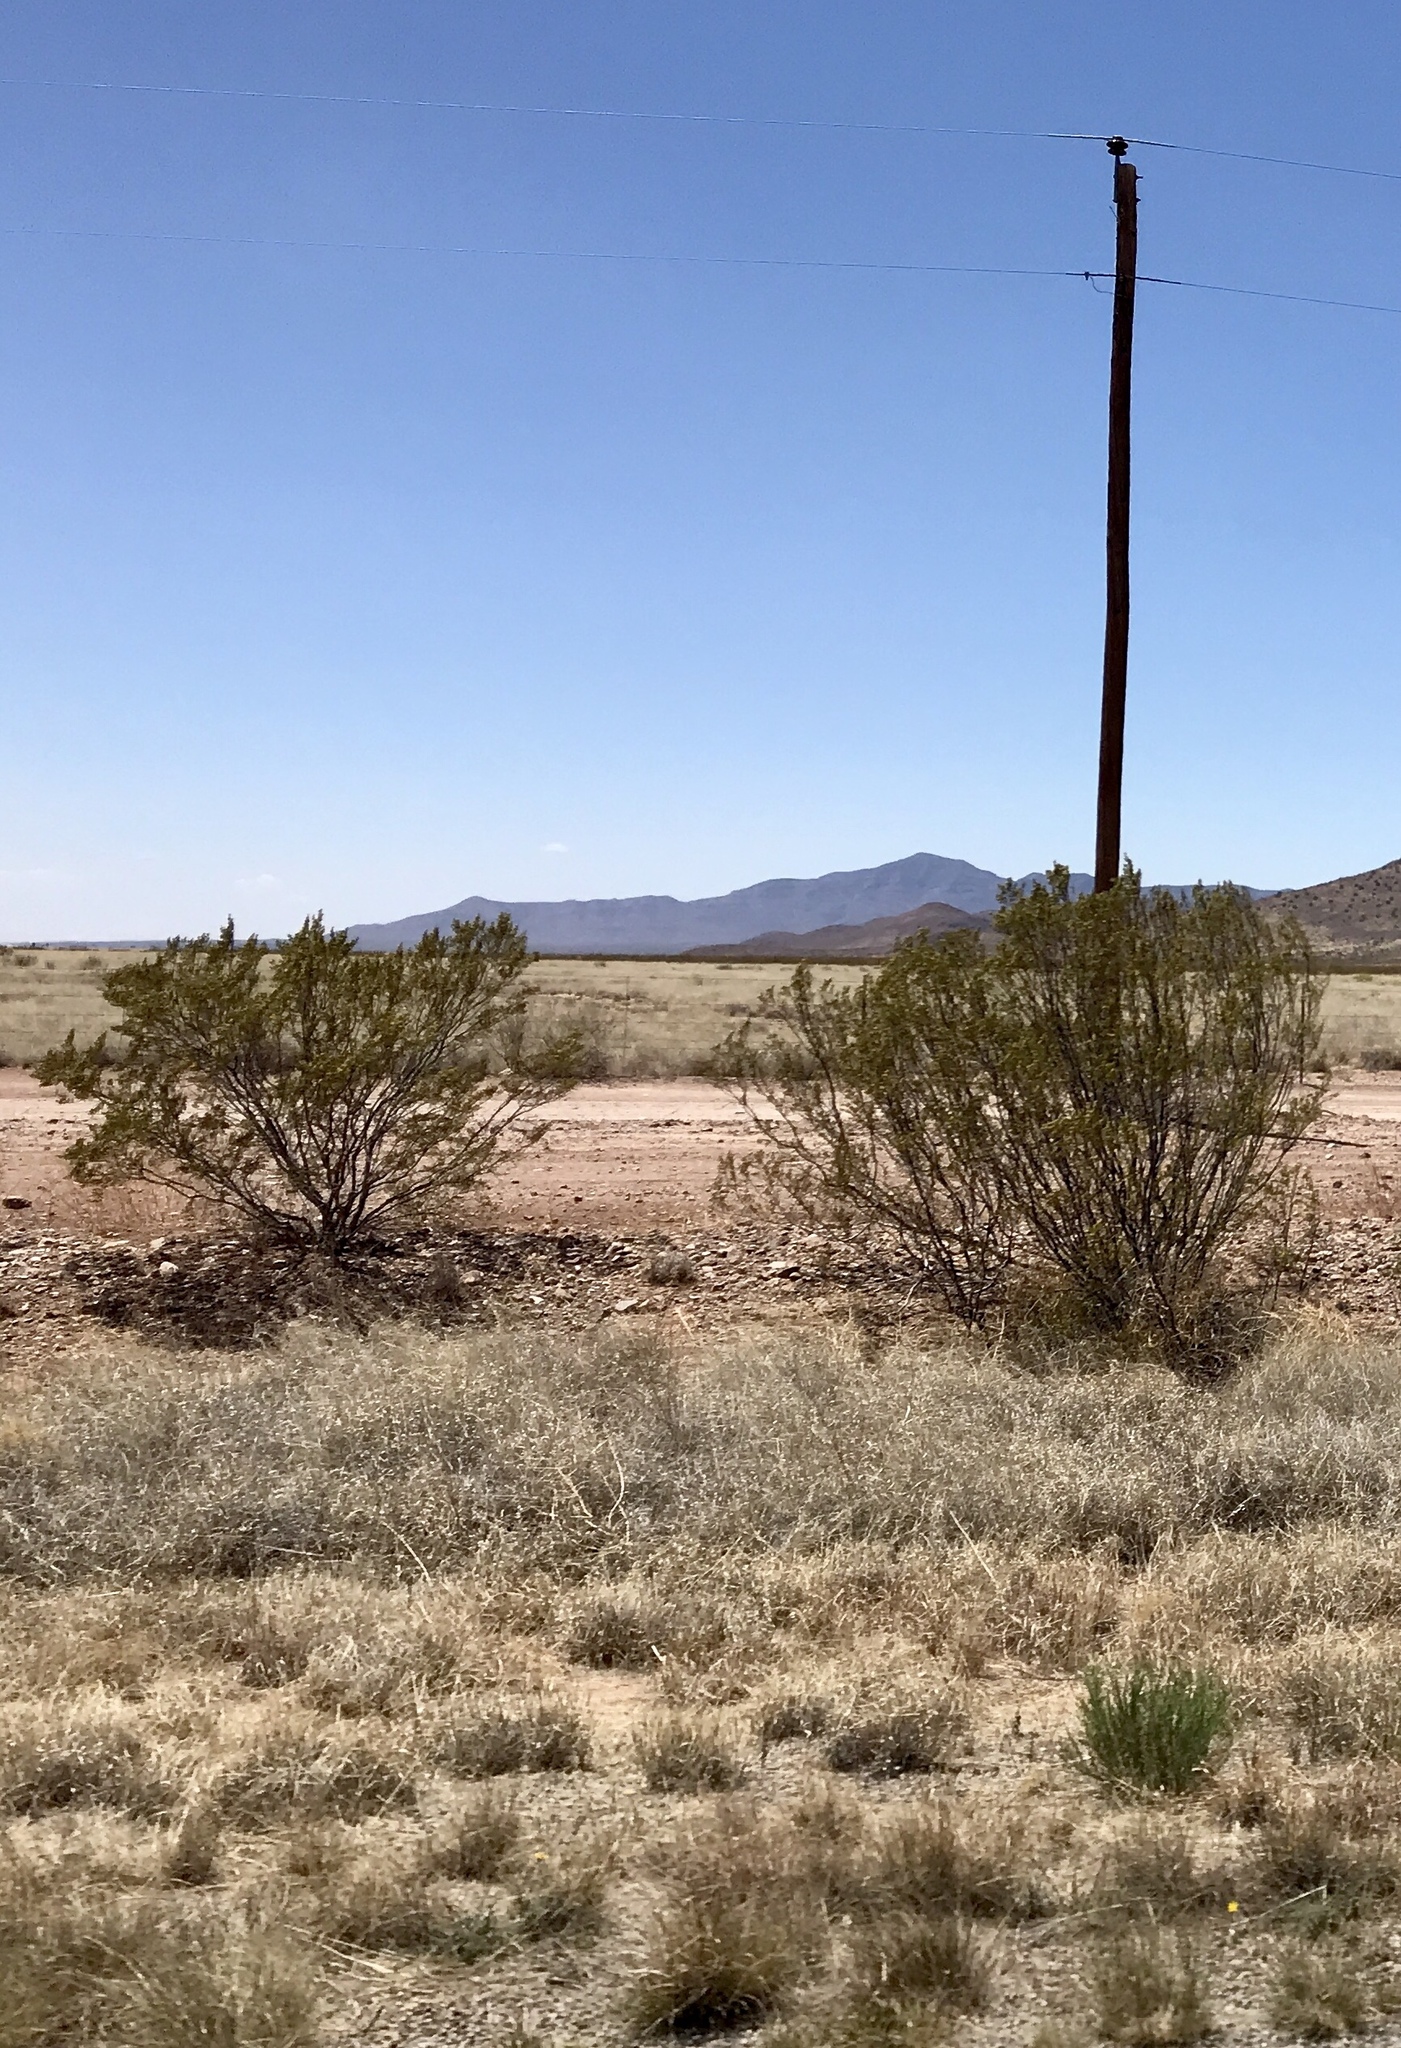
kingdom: Plantae
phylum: Tracheophyta
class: Magnoliopsida
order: Zygophyllales
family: Zygophyllaceae
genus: Larrea
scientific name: Larrea tridentata
